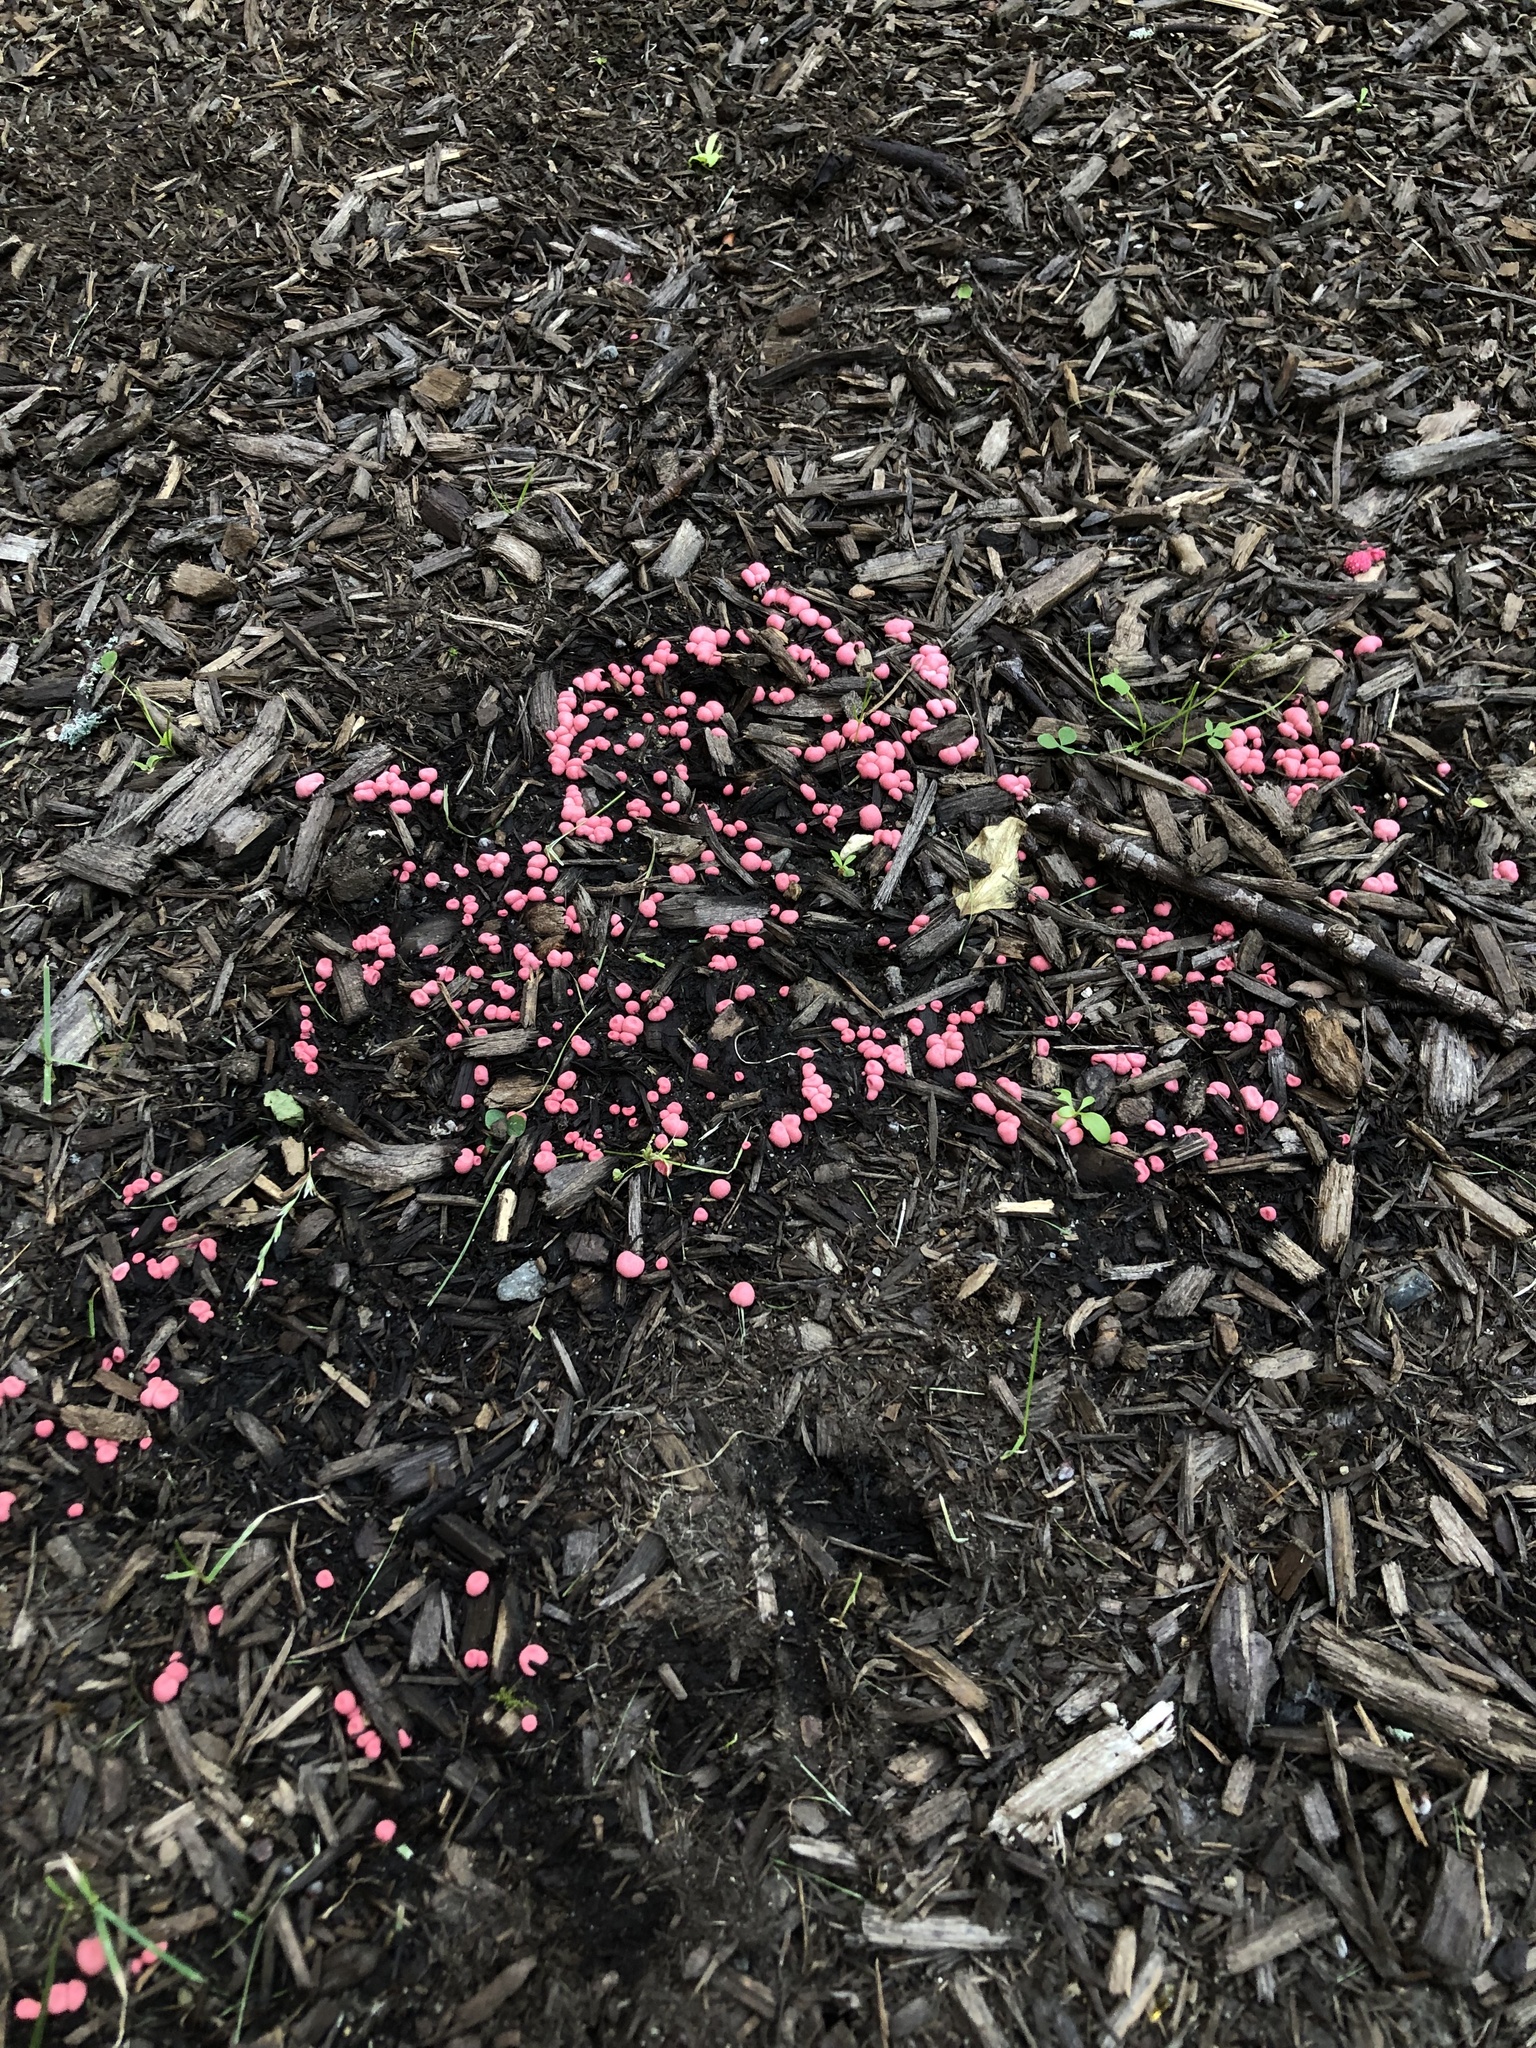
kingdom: Protozoa
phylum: Mycetozoa
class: Myxomycetes
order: Cribrariales
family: Tubiferaceae
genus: Lycogala
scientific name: Lycogala epidendrum
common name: Wolf's milk
